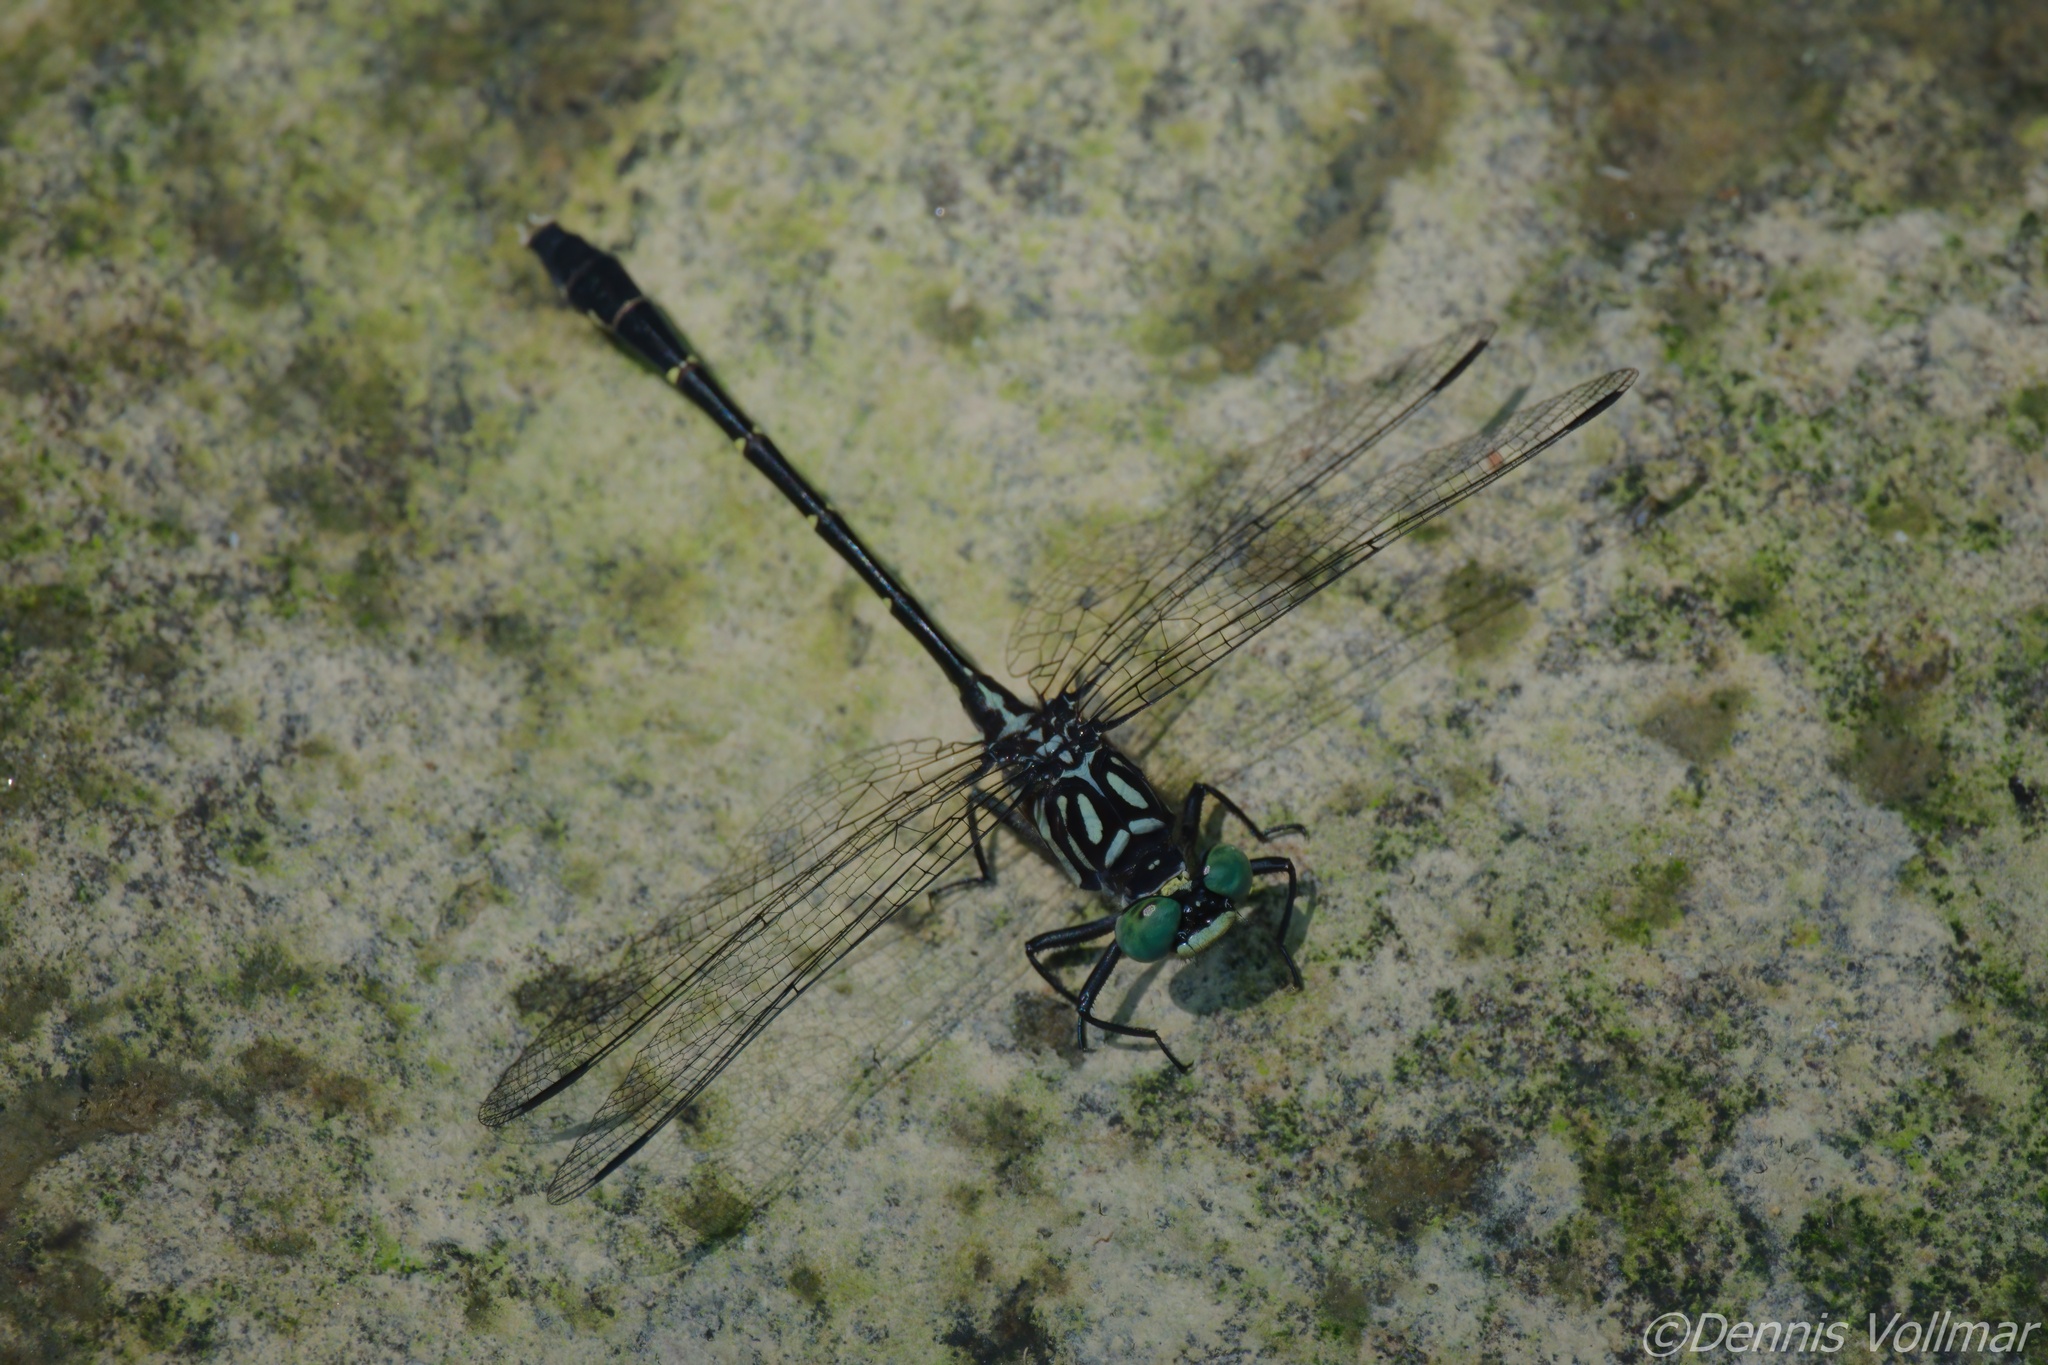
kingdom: Animalia
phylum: Arthropoda
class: Insecta
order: Odonata
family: Gomphidae
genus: Stylogomphus
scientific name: Stylogomphus albistylus
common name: Eastern least clubtail
